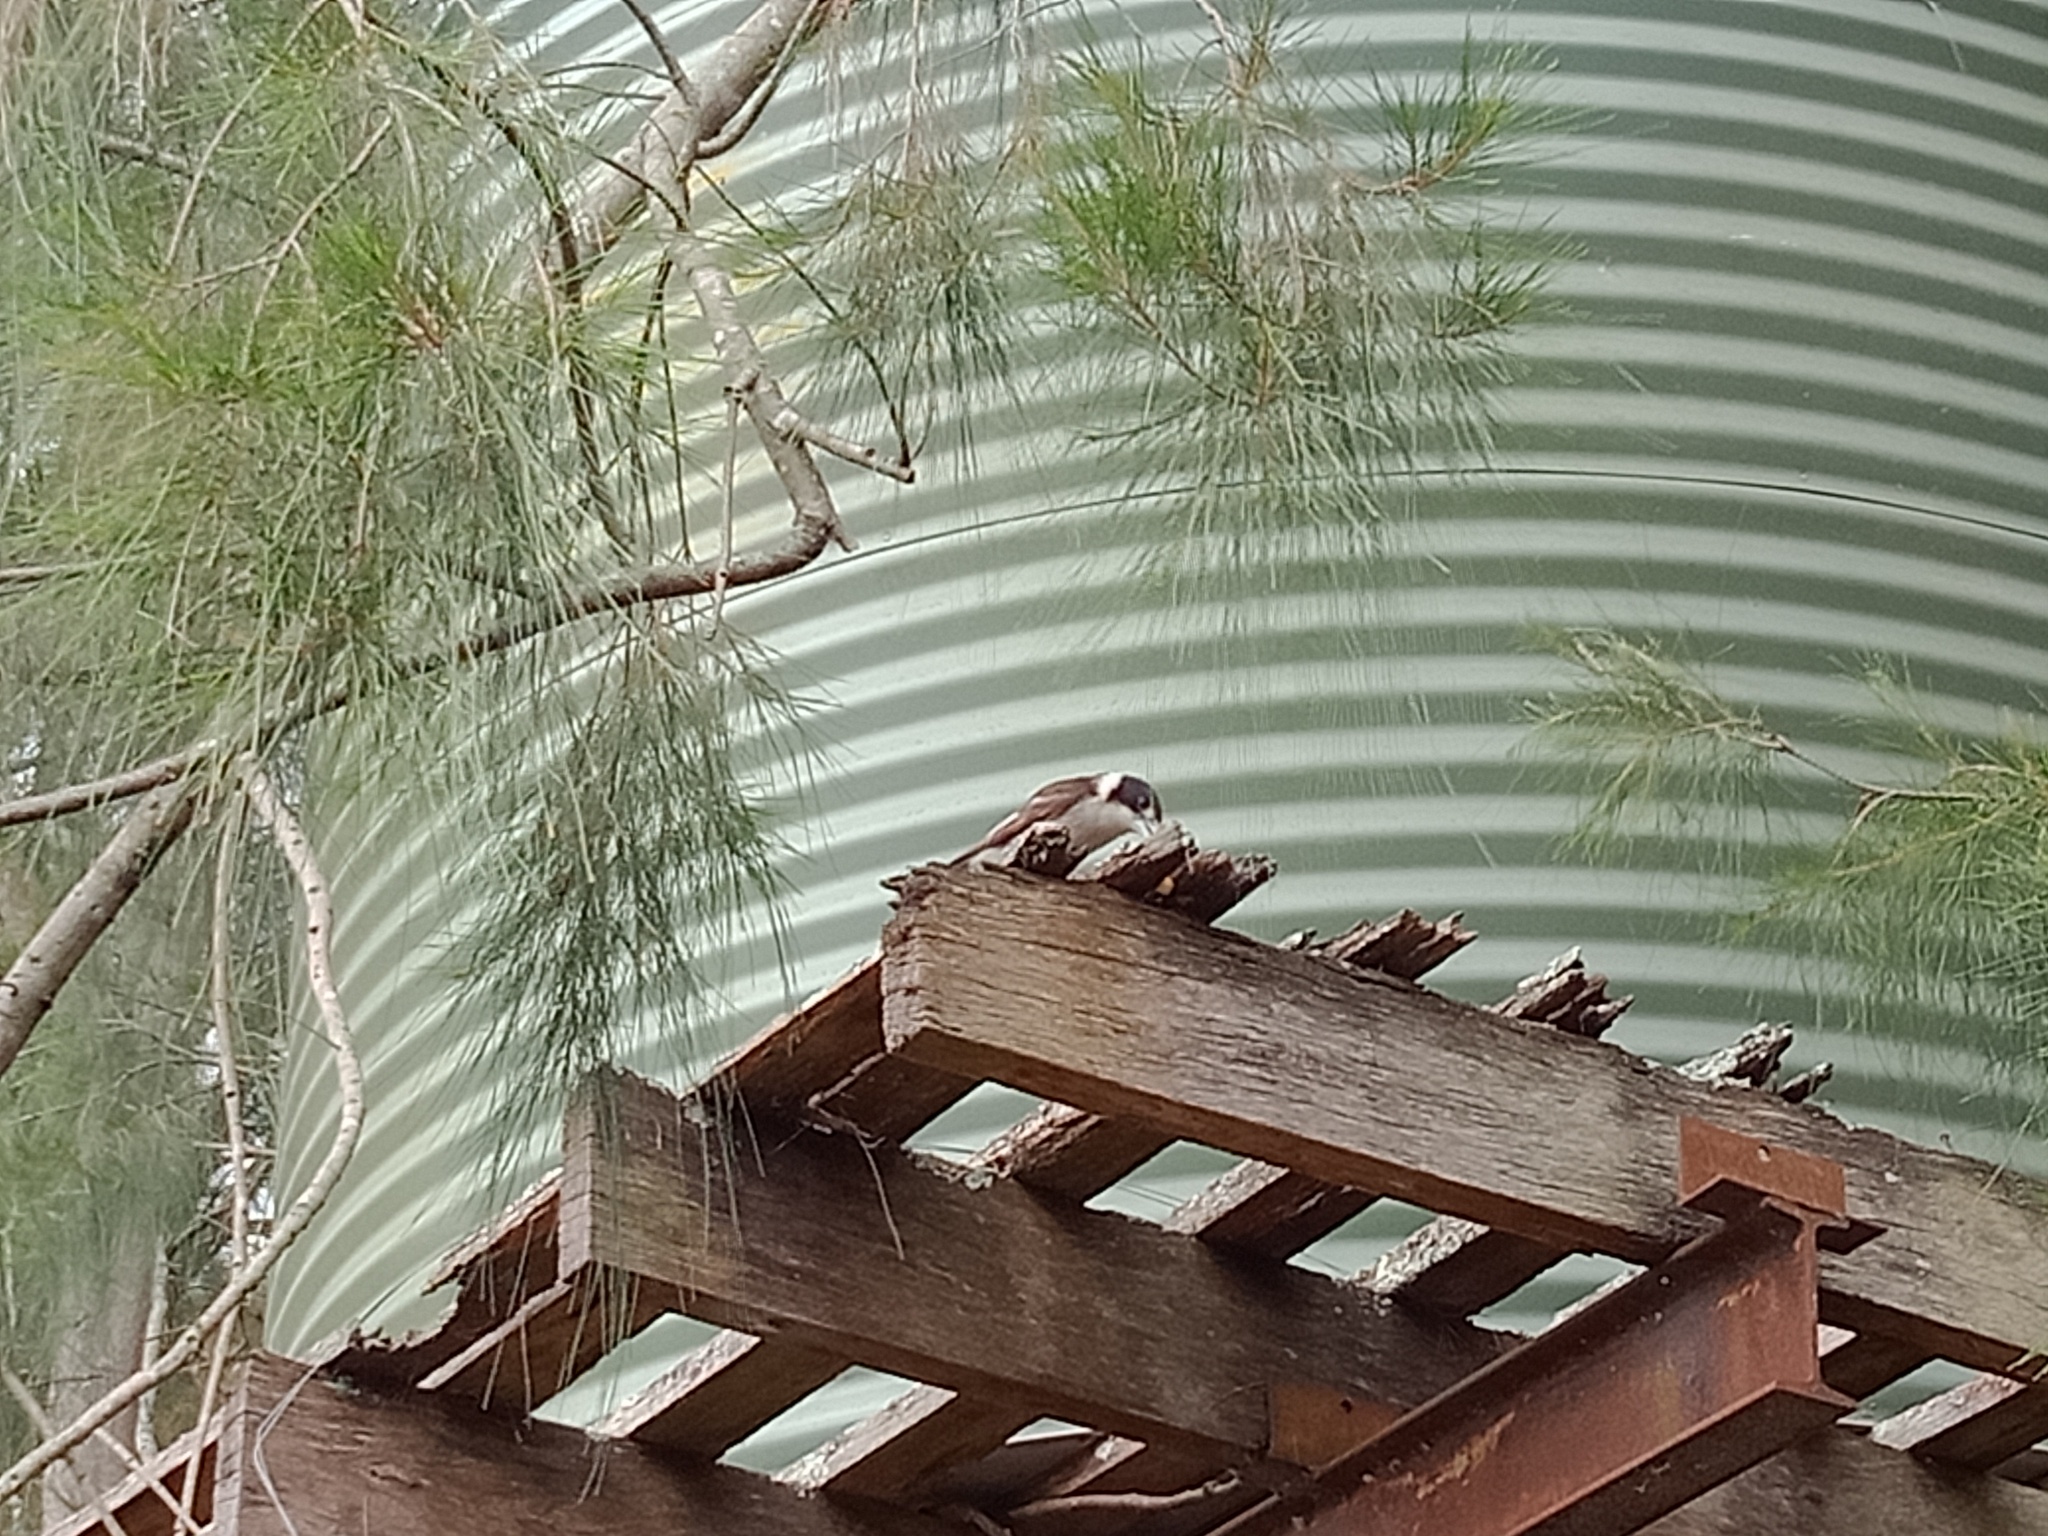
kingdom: Animalia
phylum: Chordata
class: Aves
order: Passeriformes
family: Cracticidae
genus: Cracticus
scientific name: Cracticus torquatus
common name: Grey butcherbird
